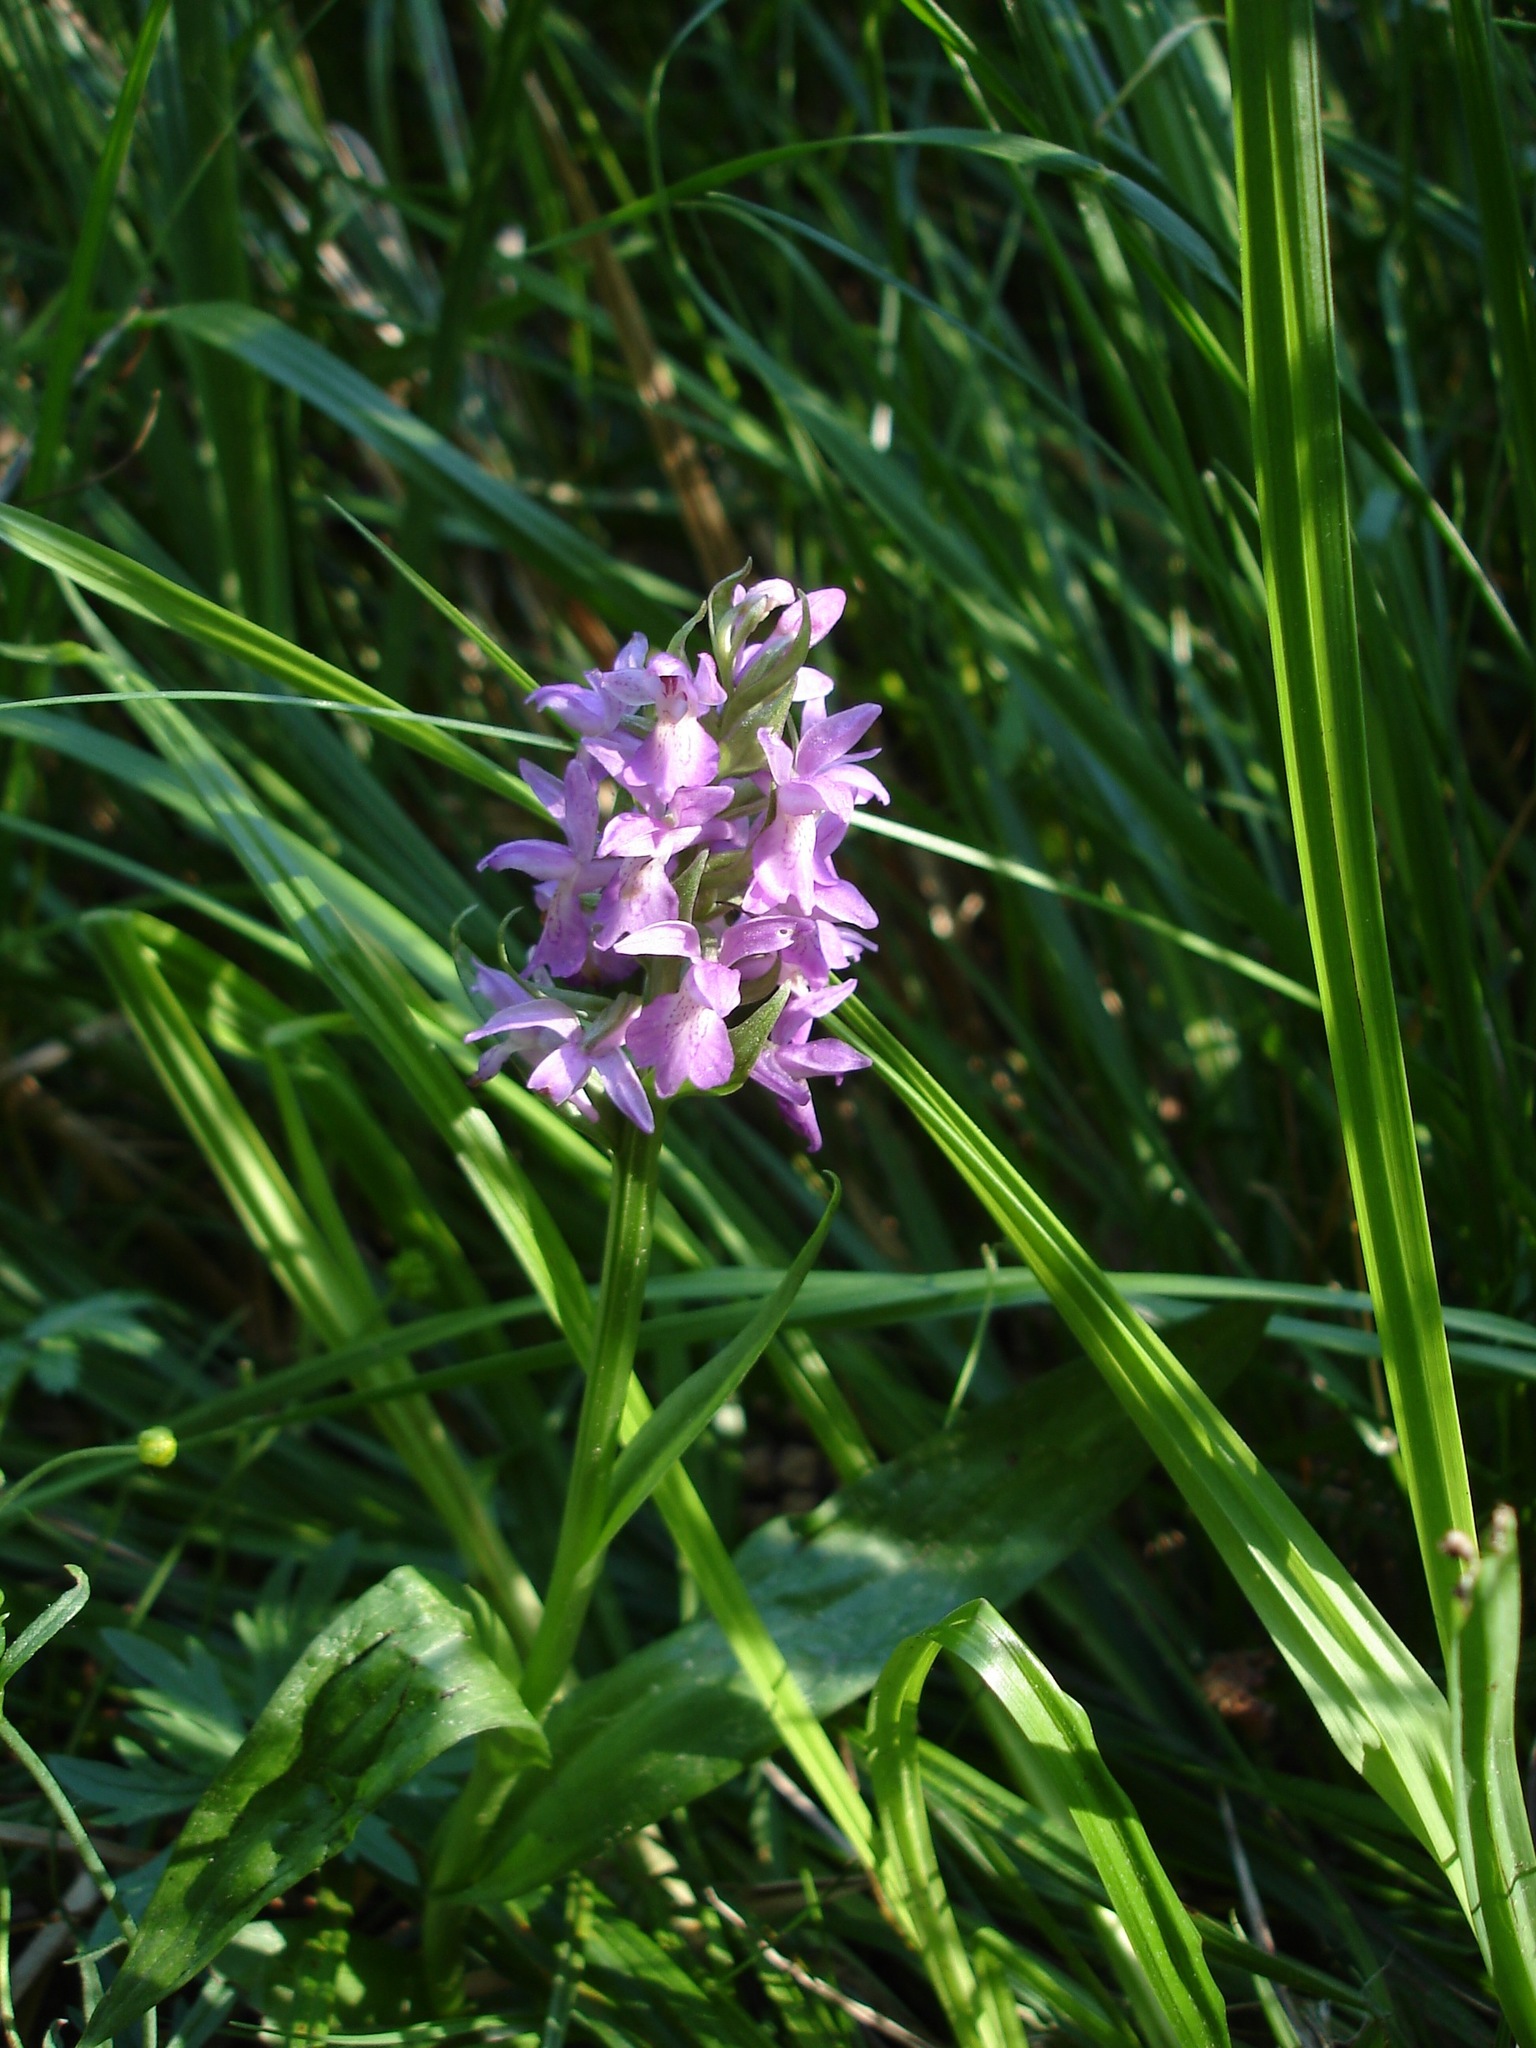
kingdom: Plantae
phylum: Tracheophyta
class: Liliopsida
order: Asparagales
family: Orchidaceae
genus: Dactylorhiza
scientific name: Dactylorhiza incarnata
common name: Early marsh-orchid
